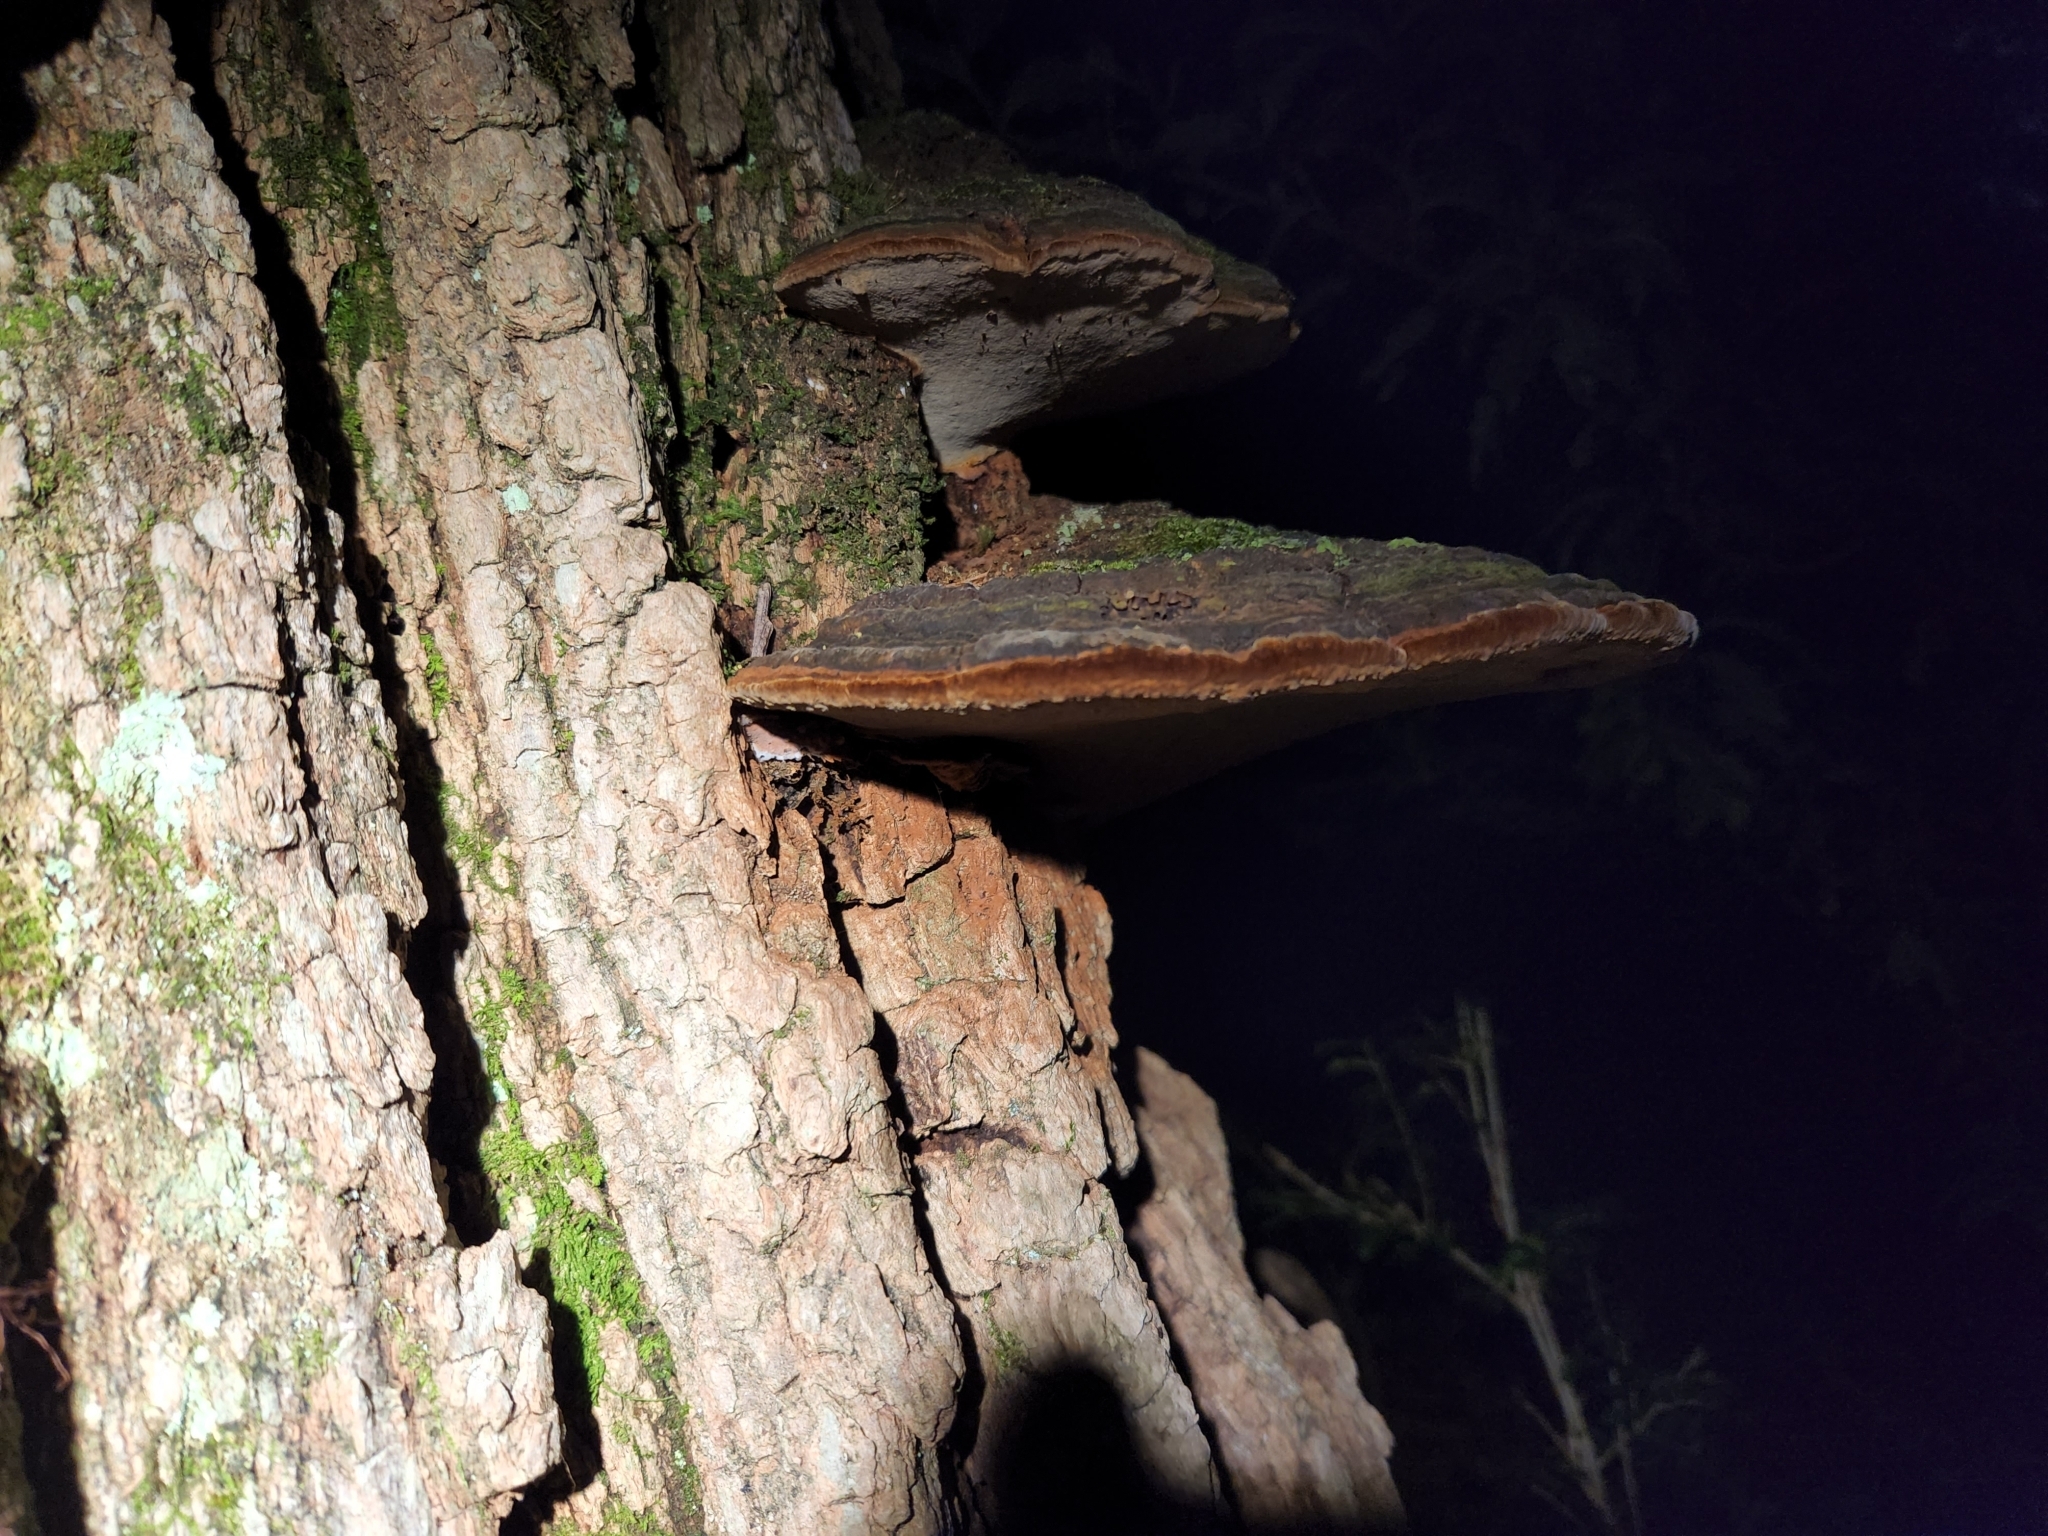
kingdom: Fungi
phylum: Basidiomycota
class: Agaricomycetes
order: Hymenochaetales
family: Hymenochaetaceae
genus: Phellinus
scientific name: Phellinus robiniae
